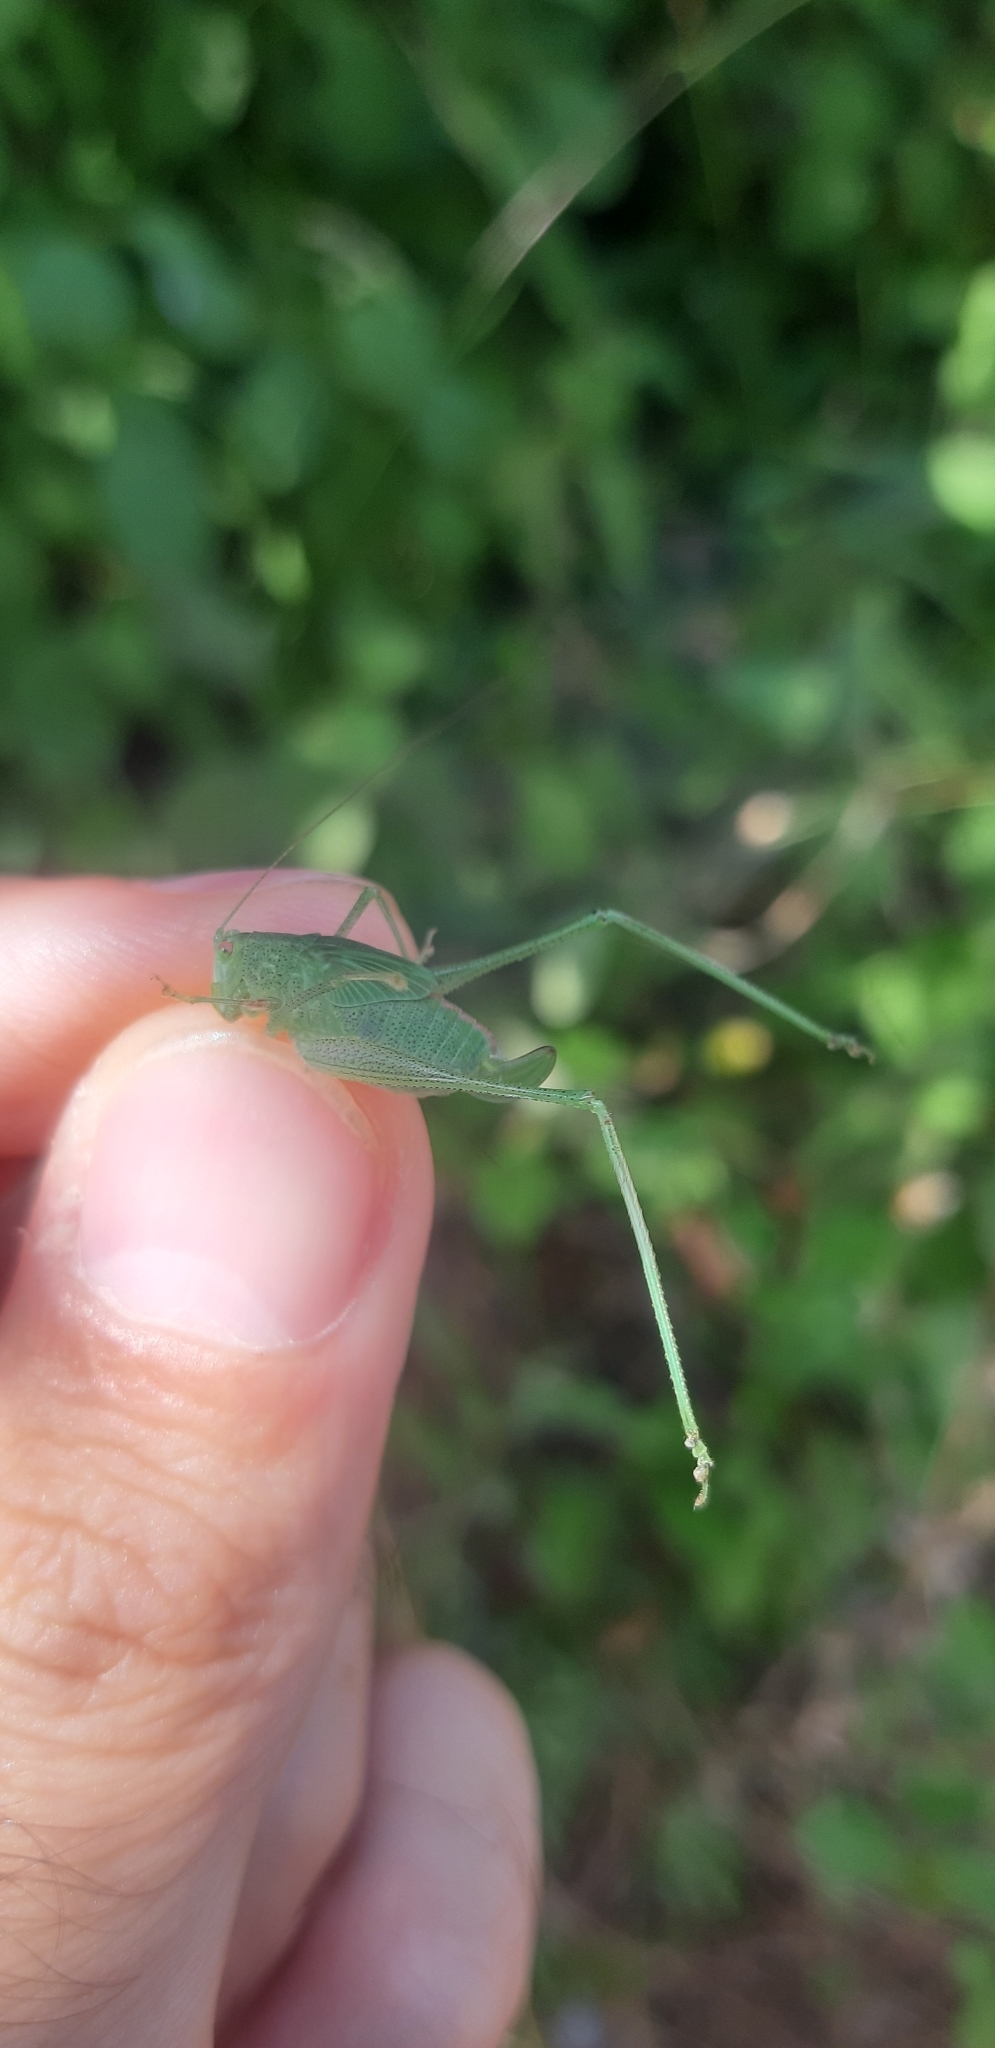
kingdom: Animalia
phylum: Arthropoda
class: Insecta
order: Orthoptera
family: Tettigoniidae
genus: Phaneroptera
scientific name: Phaneroptera nana
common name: Southern sickle bush-cricket
